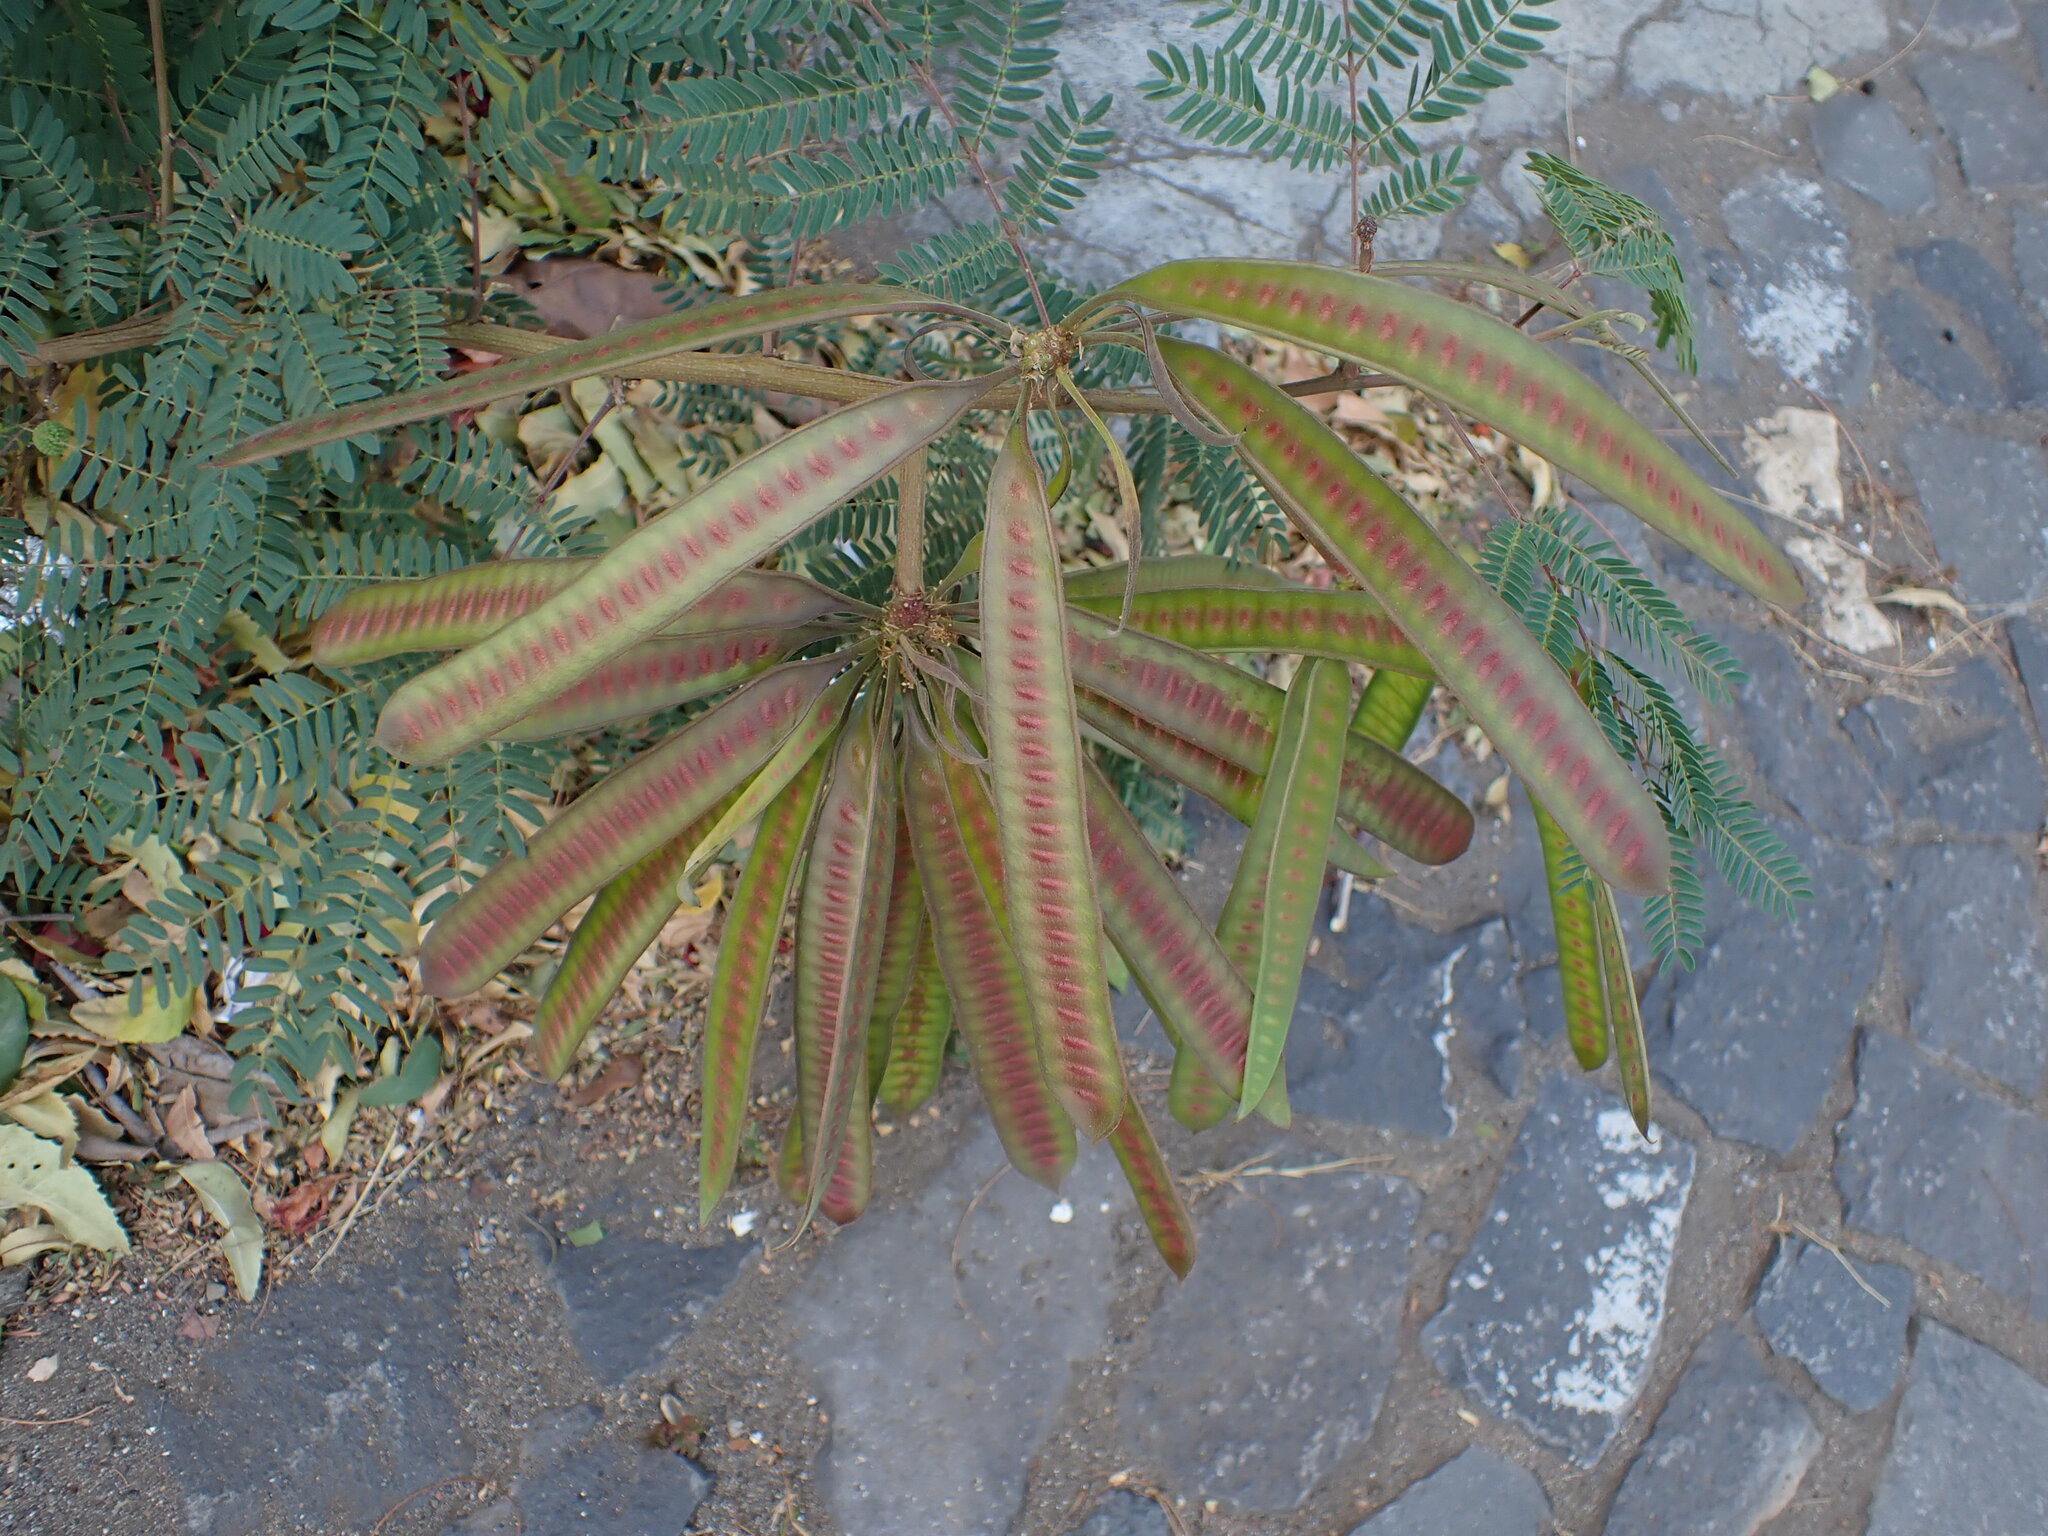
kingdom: Plantae
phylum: Tracheophyta
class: Magnoliopsida
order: Fabales
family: Fabaceae
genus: Leucaena
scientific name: Leucaena leucocephala
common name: White leadtree
